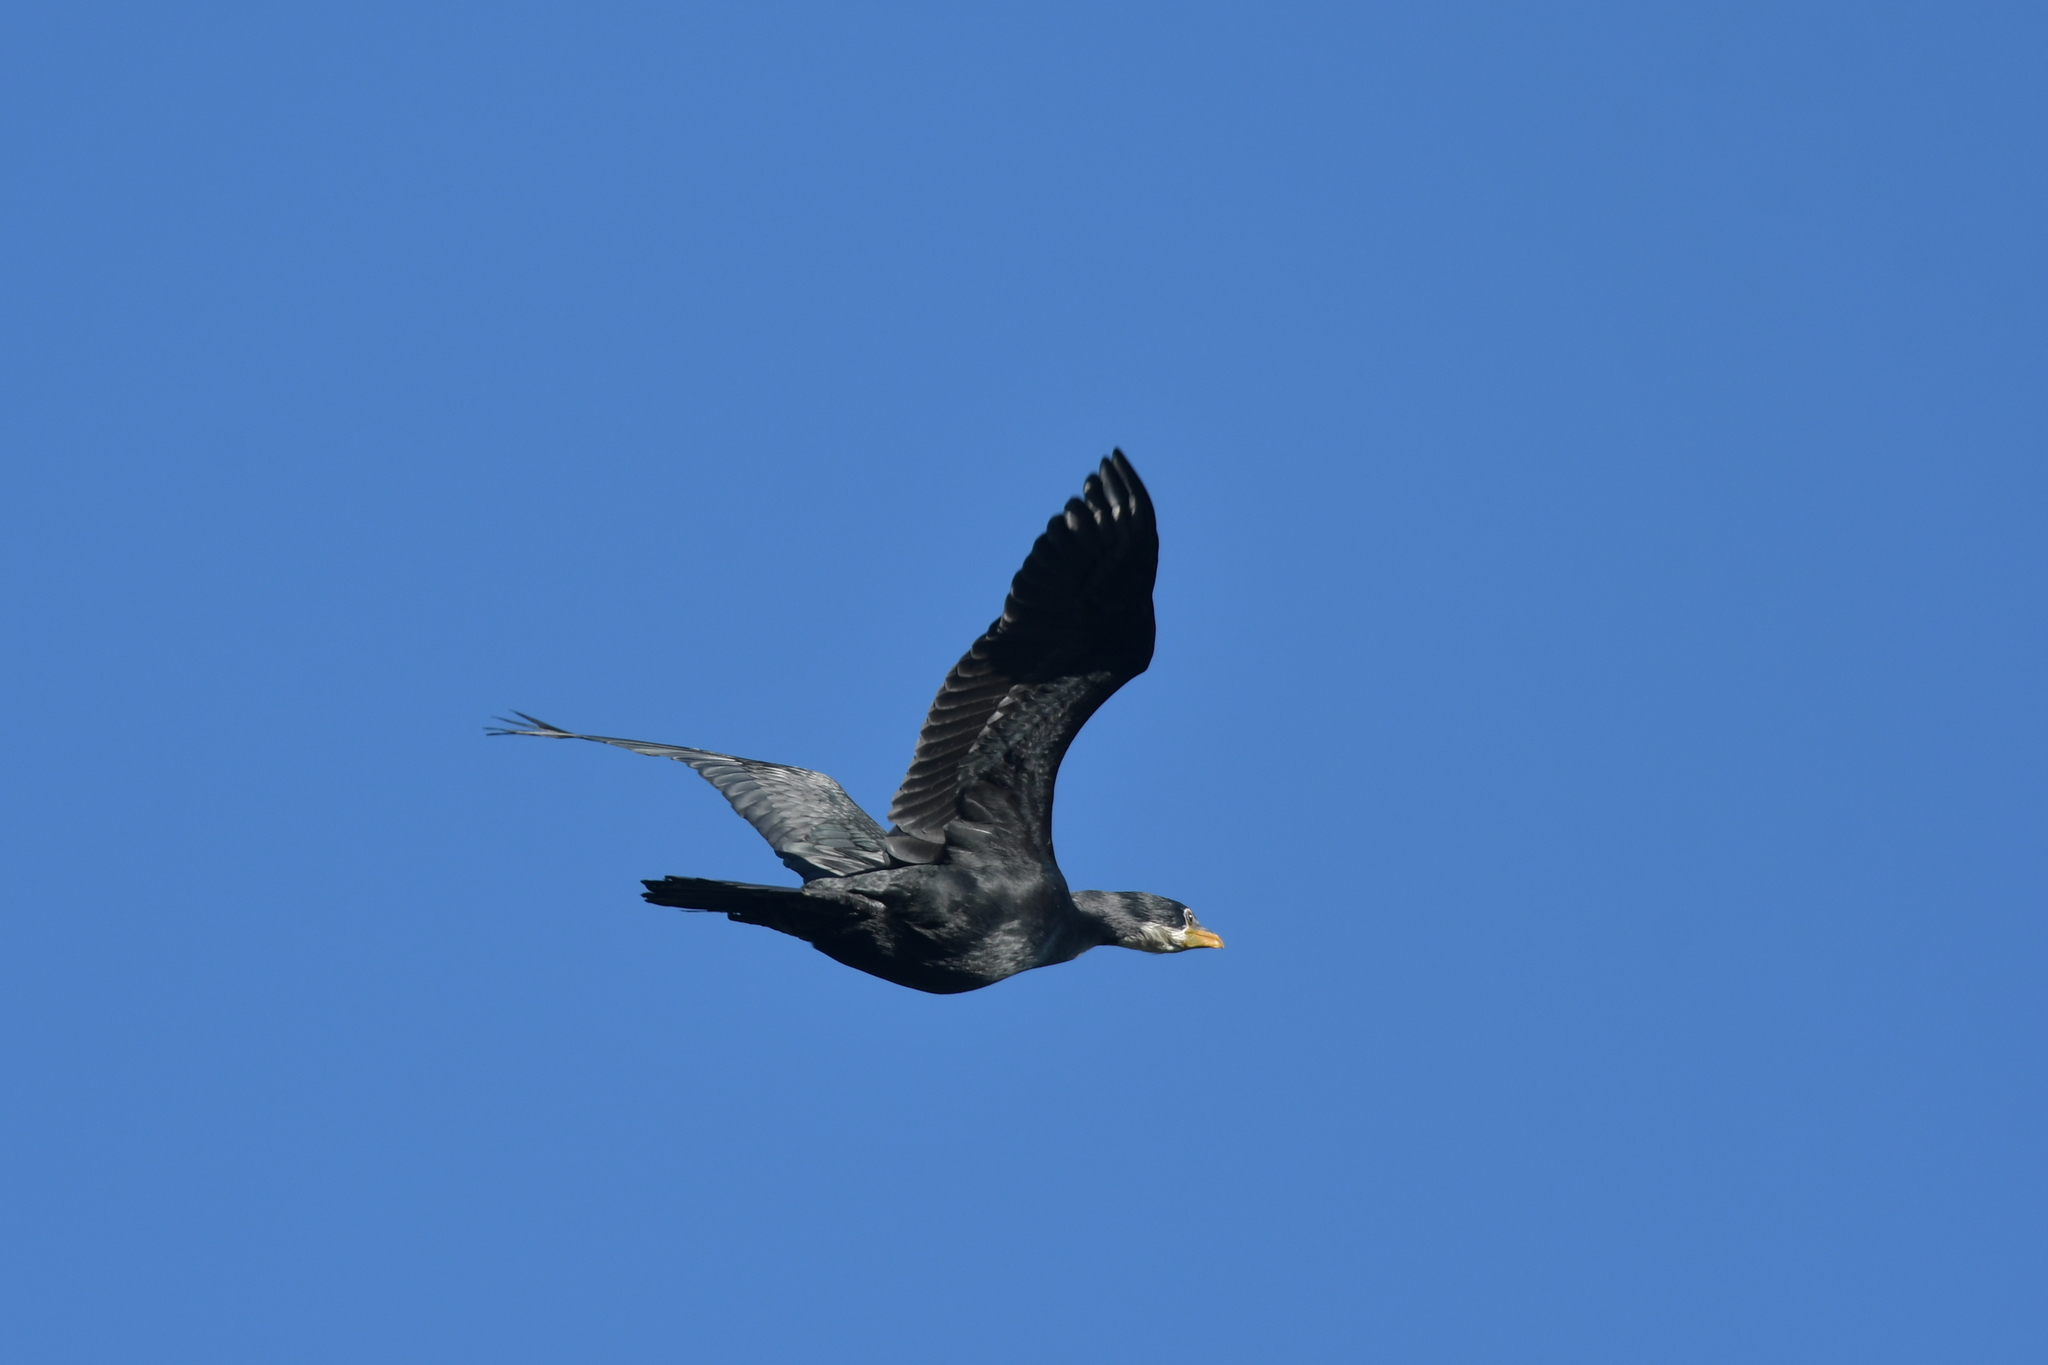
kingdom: Animalia
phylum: Chordata
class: Aves
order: Suliformes
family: Phalacrocoracidae
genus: Microcarbo
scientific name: Microcarbo melanoleucos
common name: Little pied cormorant
